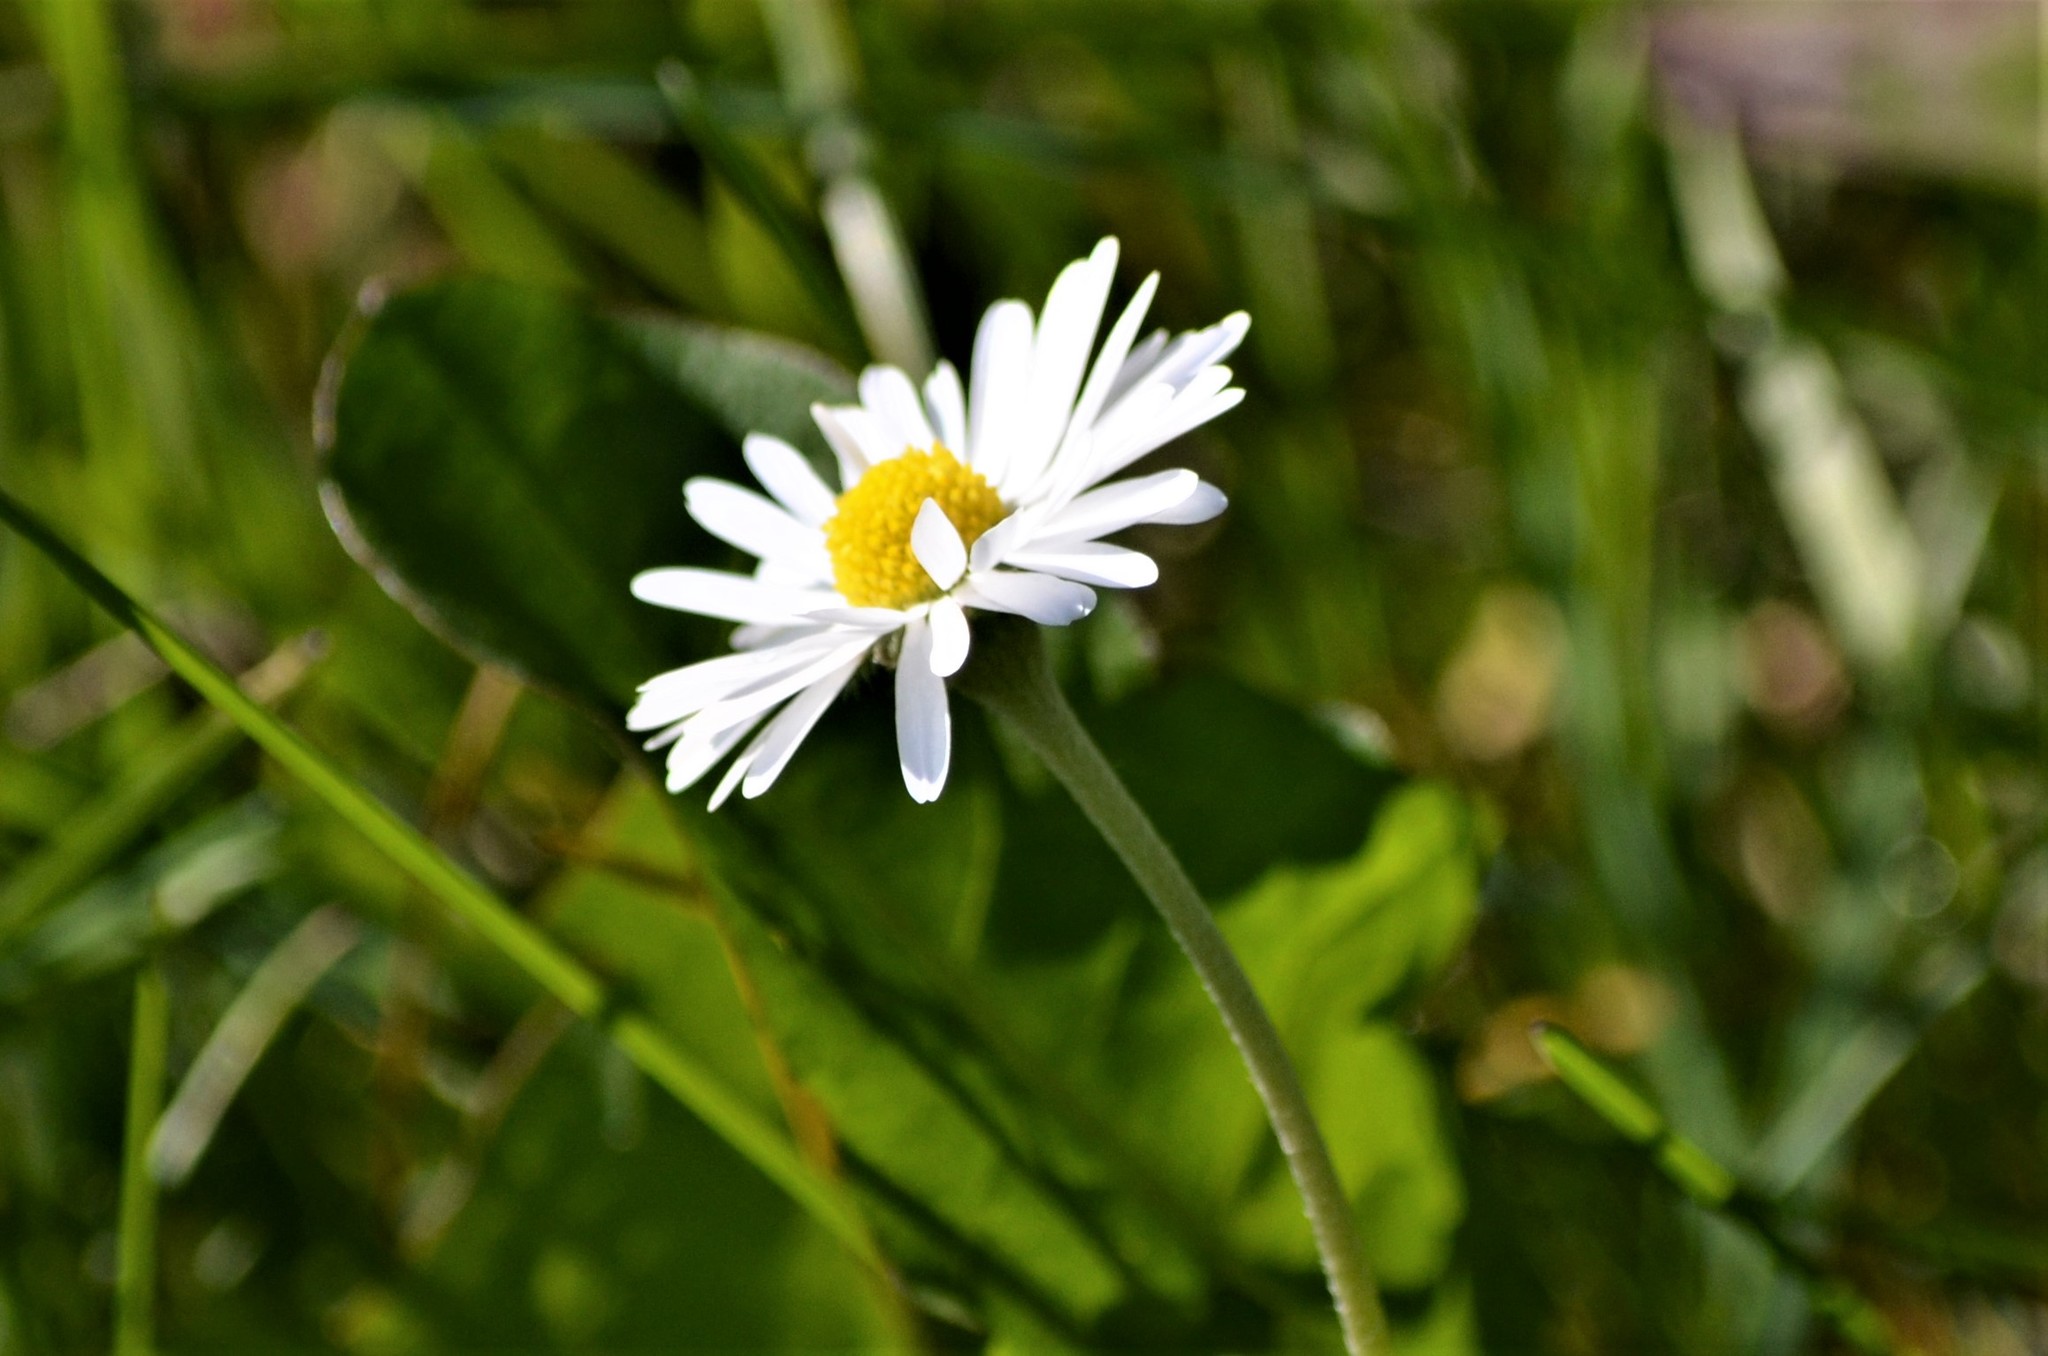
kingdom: Plantae
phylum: Tracheophyta
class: Magnoliopsida
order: Asterales
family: Asteraceae
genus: Bellis
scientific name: Bellis perennis
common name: Lawndaisy
